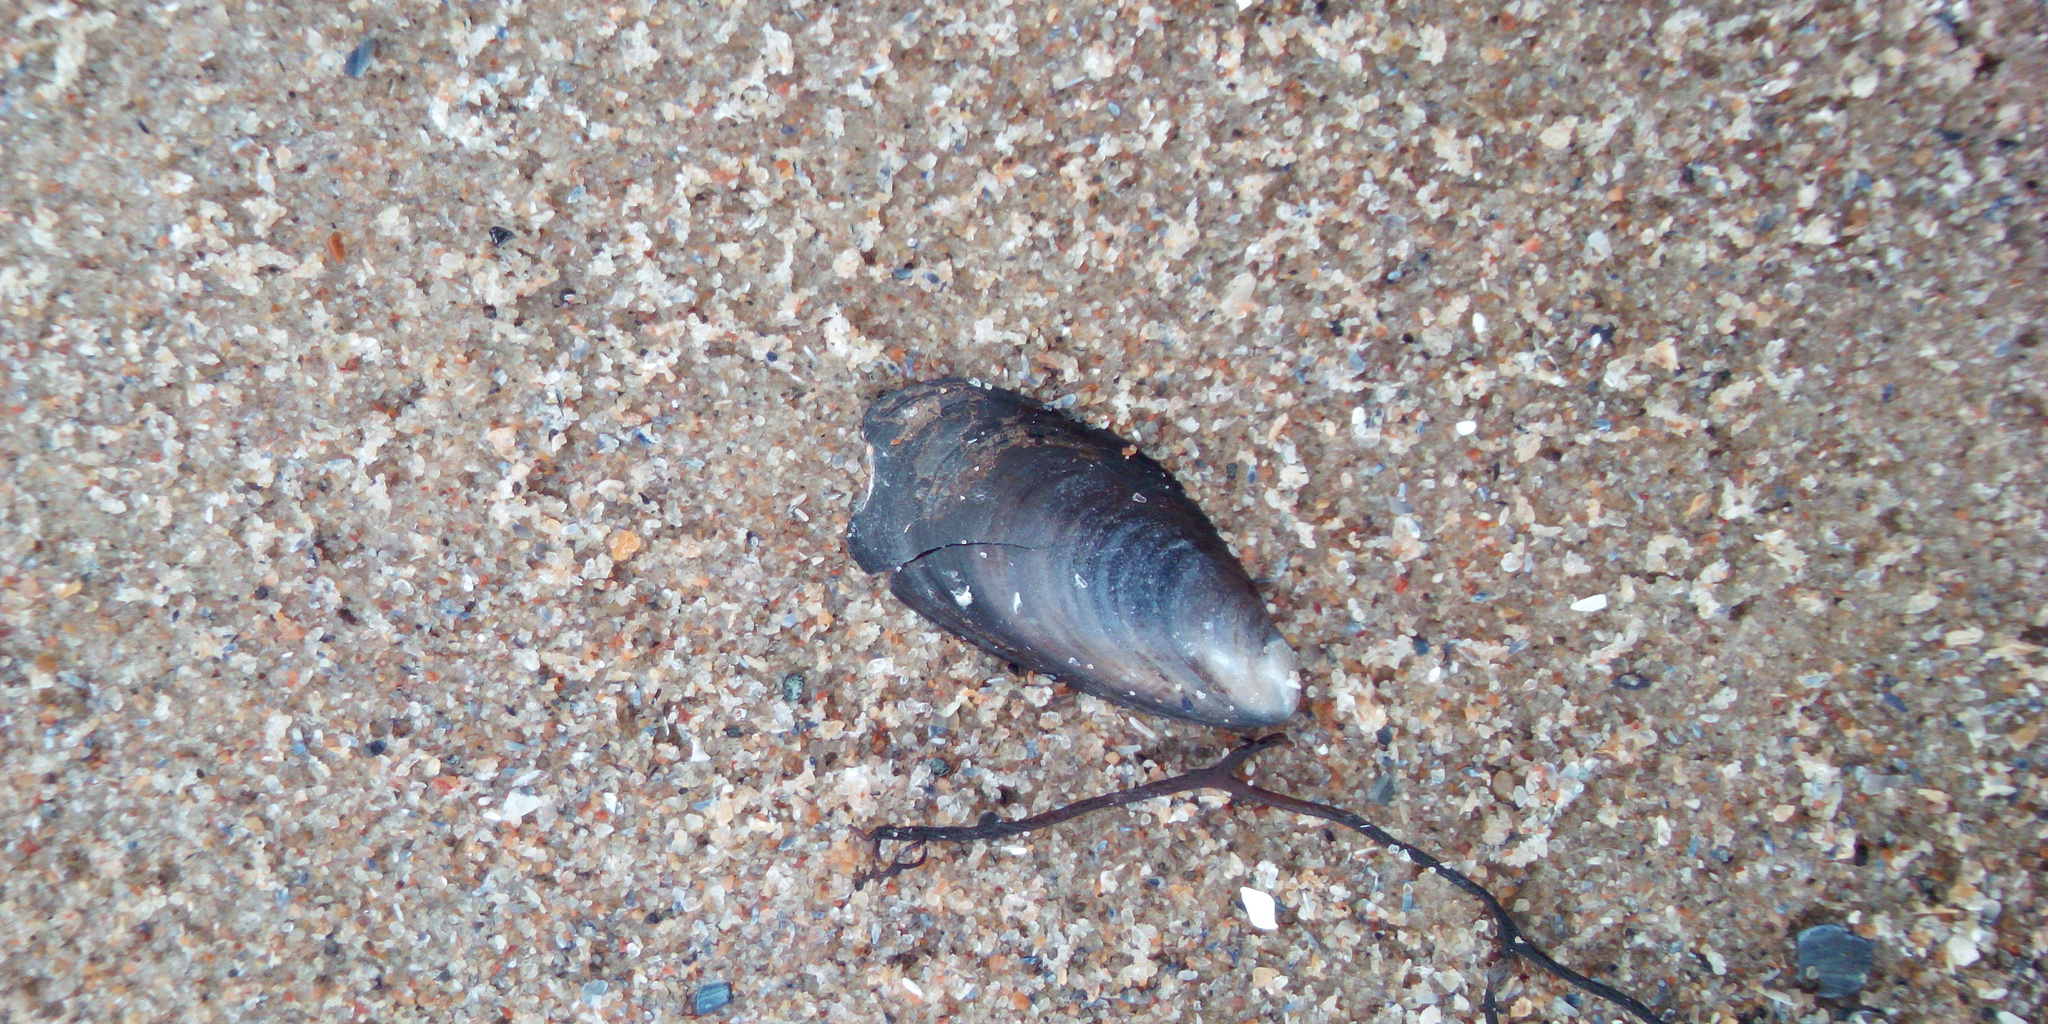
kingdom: Animalia
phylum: Mollusca
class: Bivalvia
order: Mytilida
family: Mytilidae
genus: Mytilus
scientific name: Mytilus trossulus
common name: Northern blue mussel
